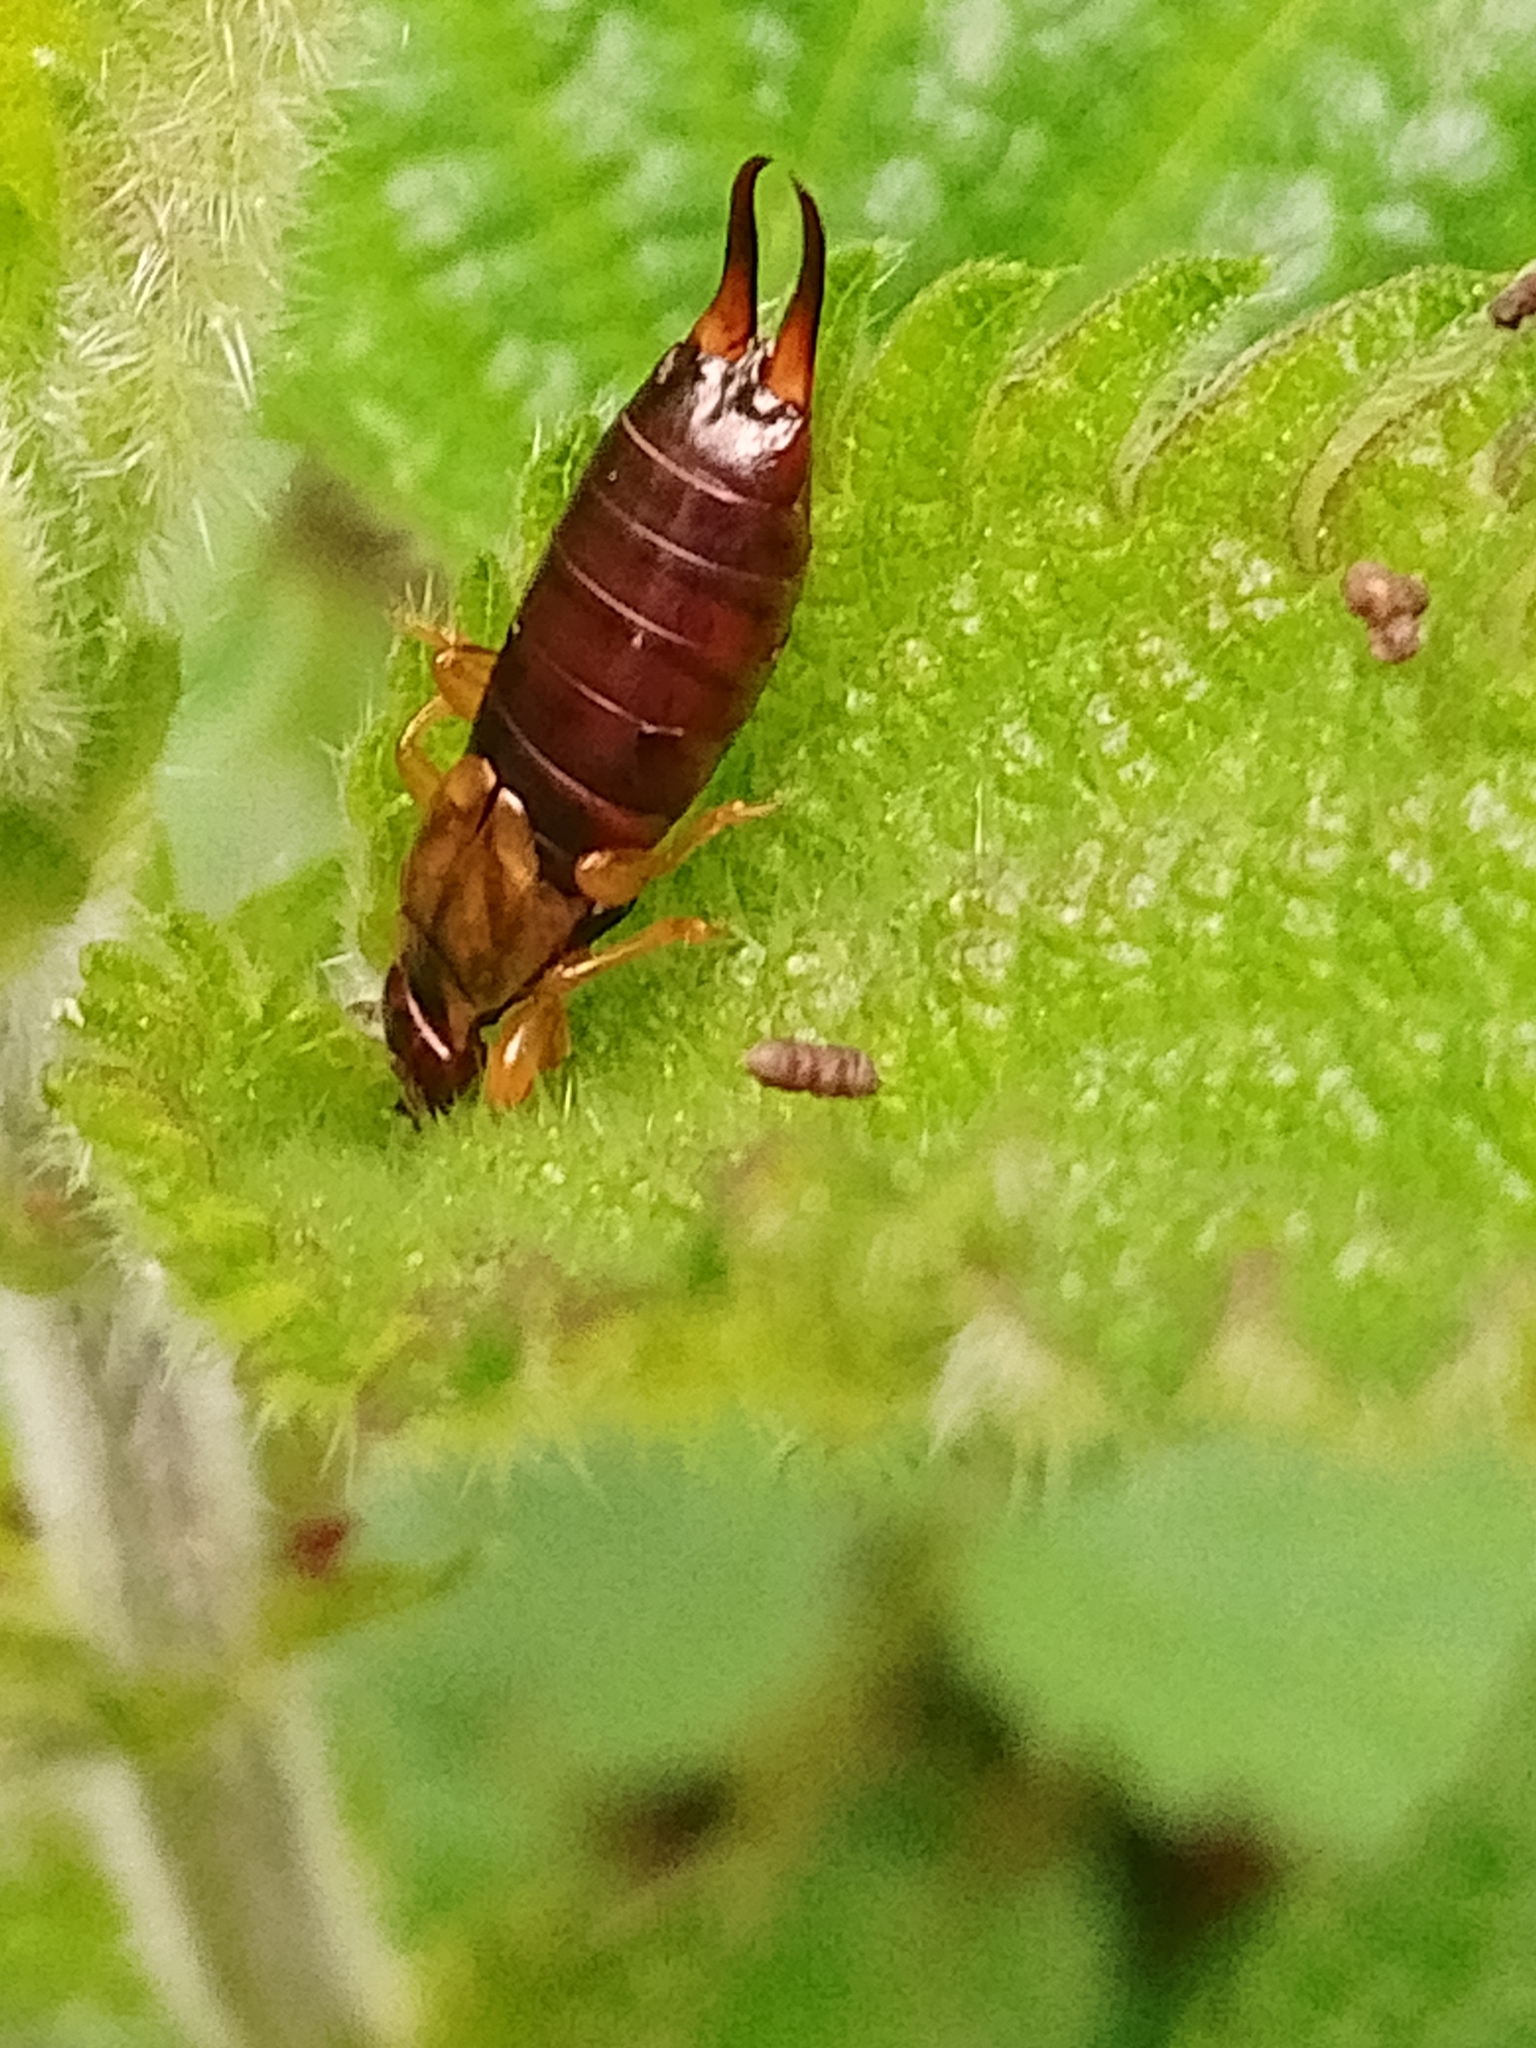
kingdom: Animalia
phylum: Arthropoda
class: Insecta
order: Dermaptera
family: Forficulidae
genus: Forficula
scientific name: Forficula
